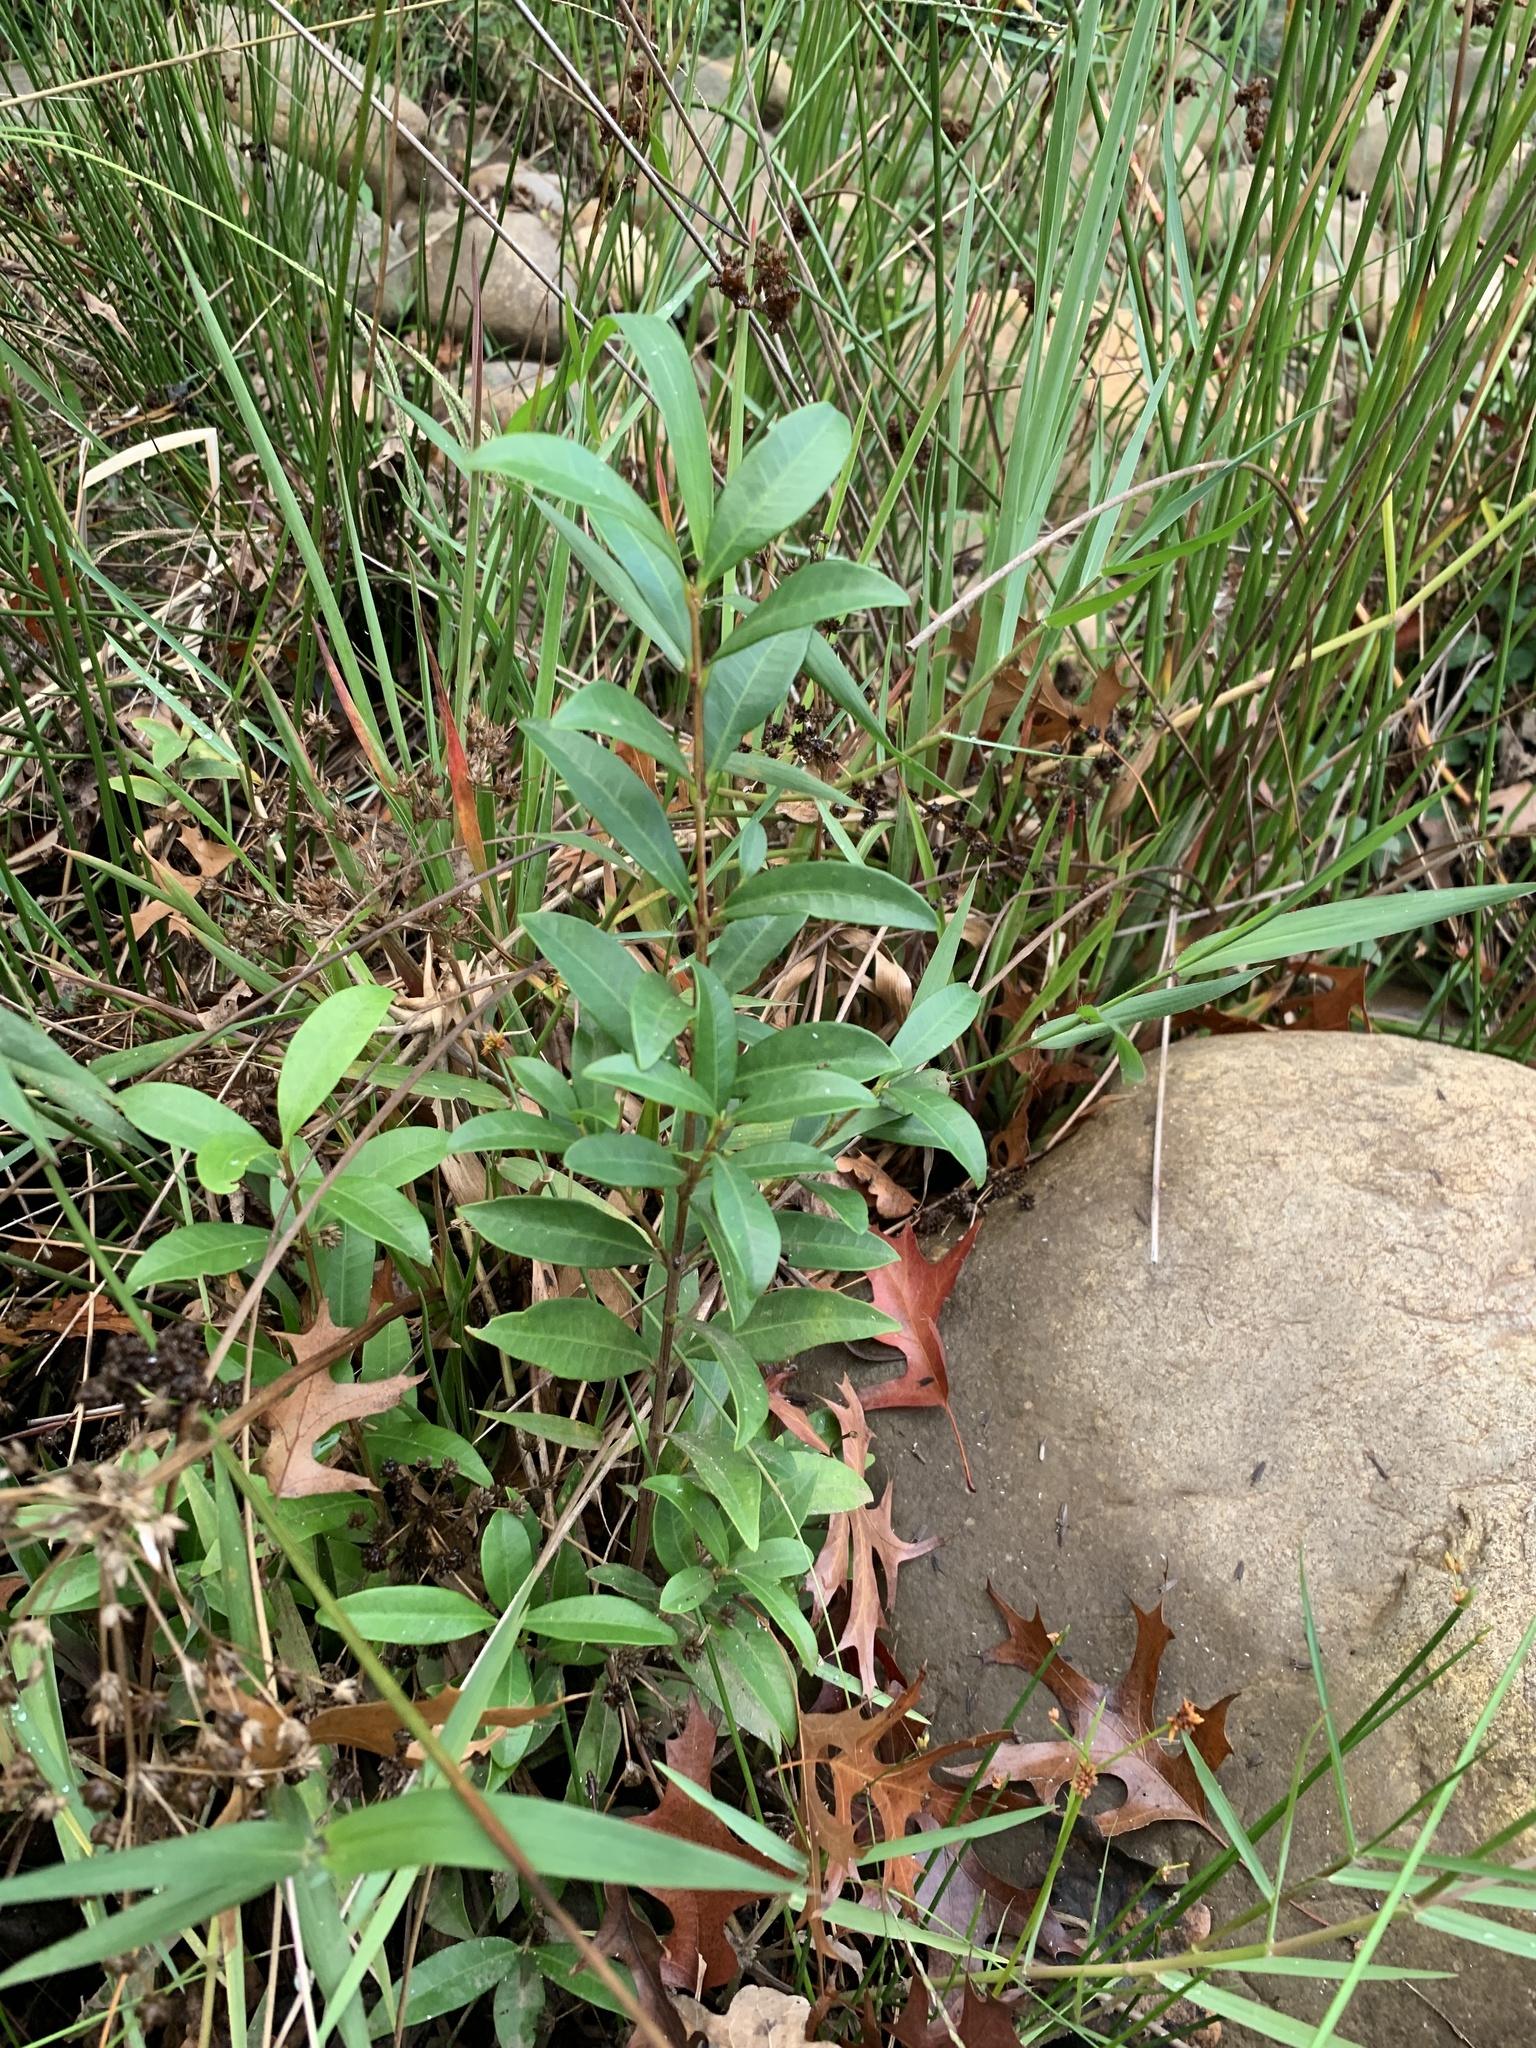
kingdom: Plantae
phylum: Tracheophyta
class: Magnoliopsida
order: Myrtales
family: Myrtaceae
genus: Syzygium
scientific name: Syzygium australe
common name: Australian brush-cherry
